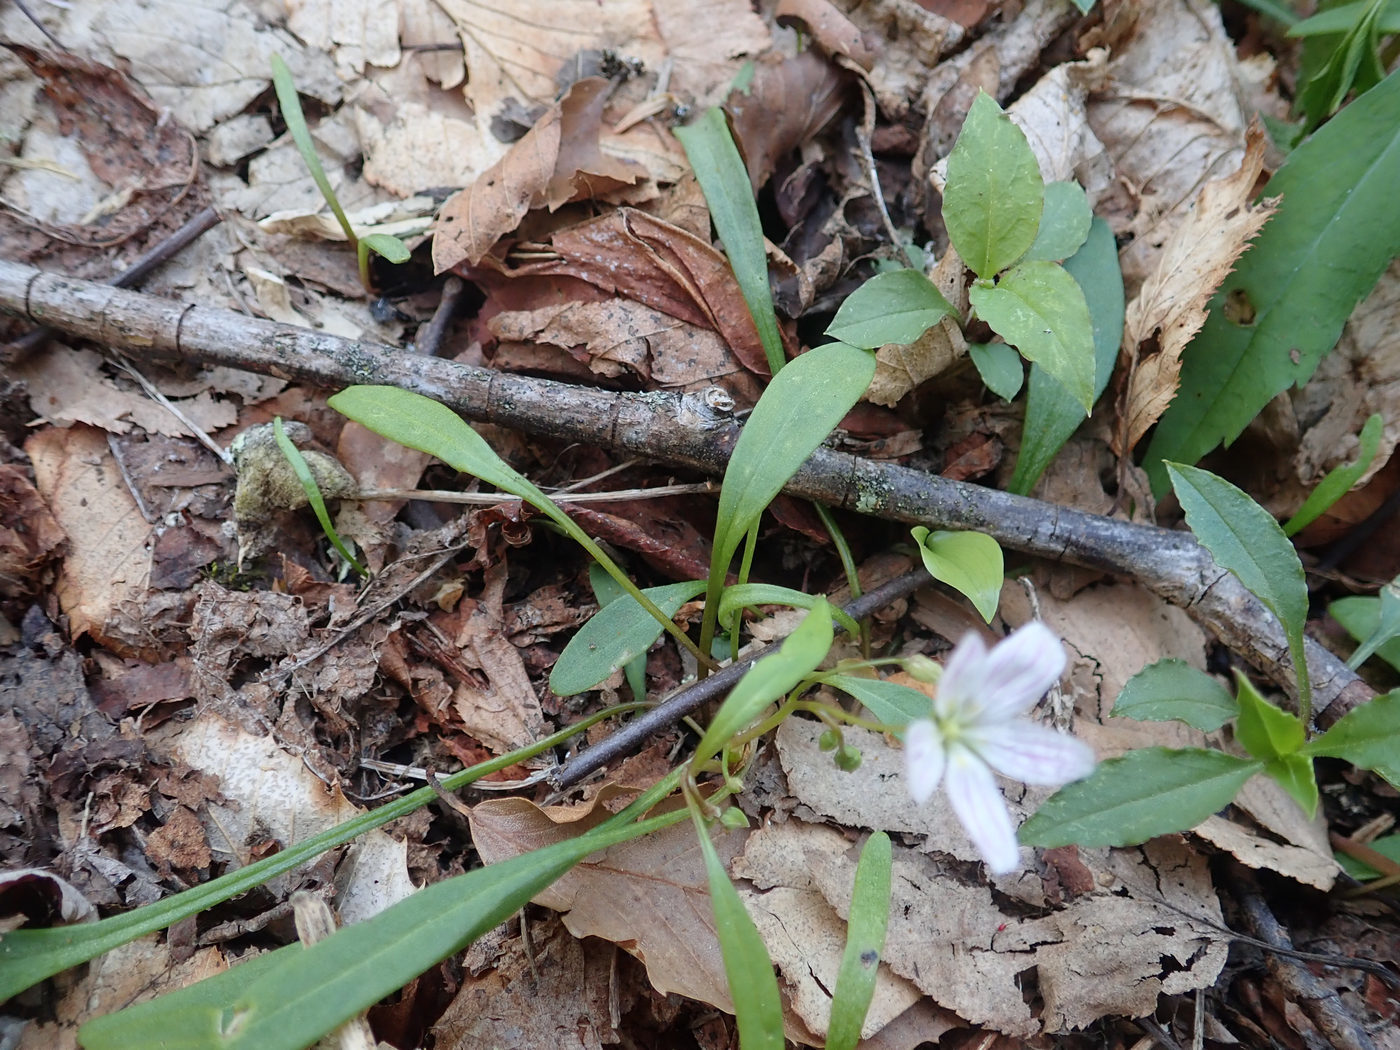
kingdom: Plantae
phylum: Tracheophyta
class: Magnoliopsida
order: Caryophyllales
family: Montiaceae
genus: Claytonia
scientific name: Claytonia caroliniana
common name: Carolina spring beauty
